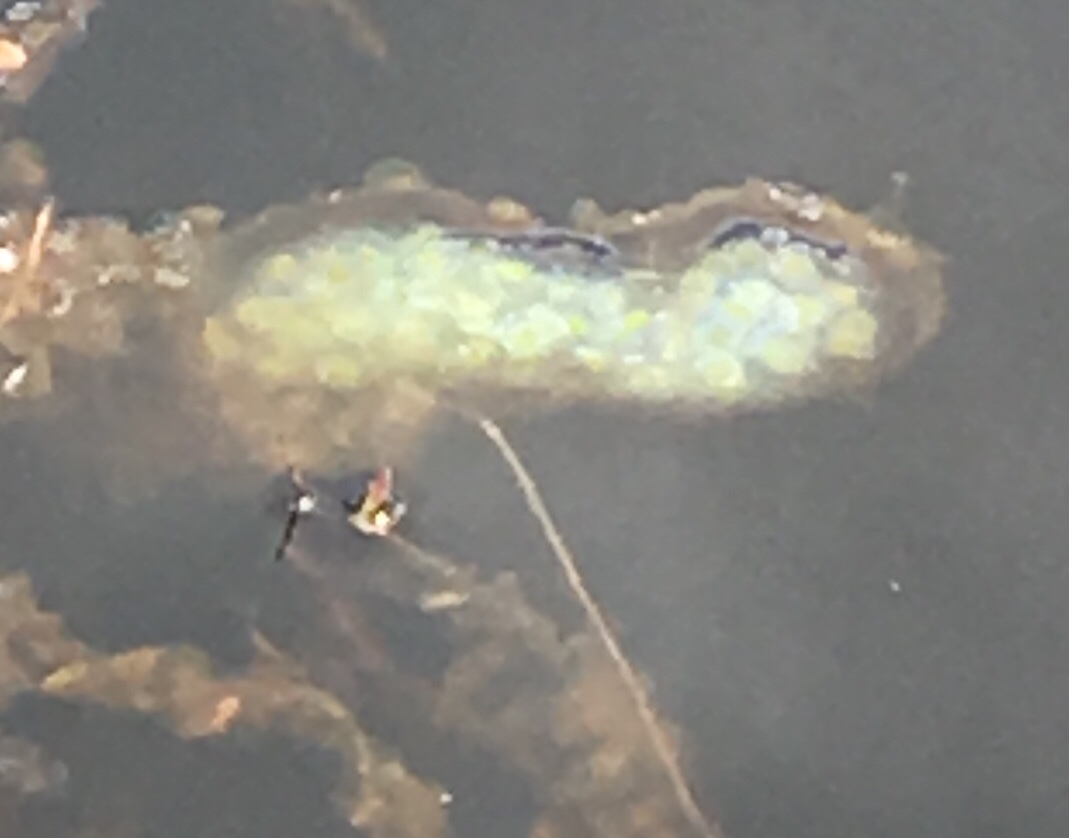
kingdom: Animalia
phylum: Chordata
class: Amphibia
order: Caudata
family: Salamandridae
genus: Notophthalmus
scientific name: Notophthalmus viridescens
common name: Eastern newt
